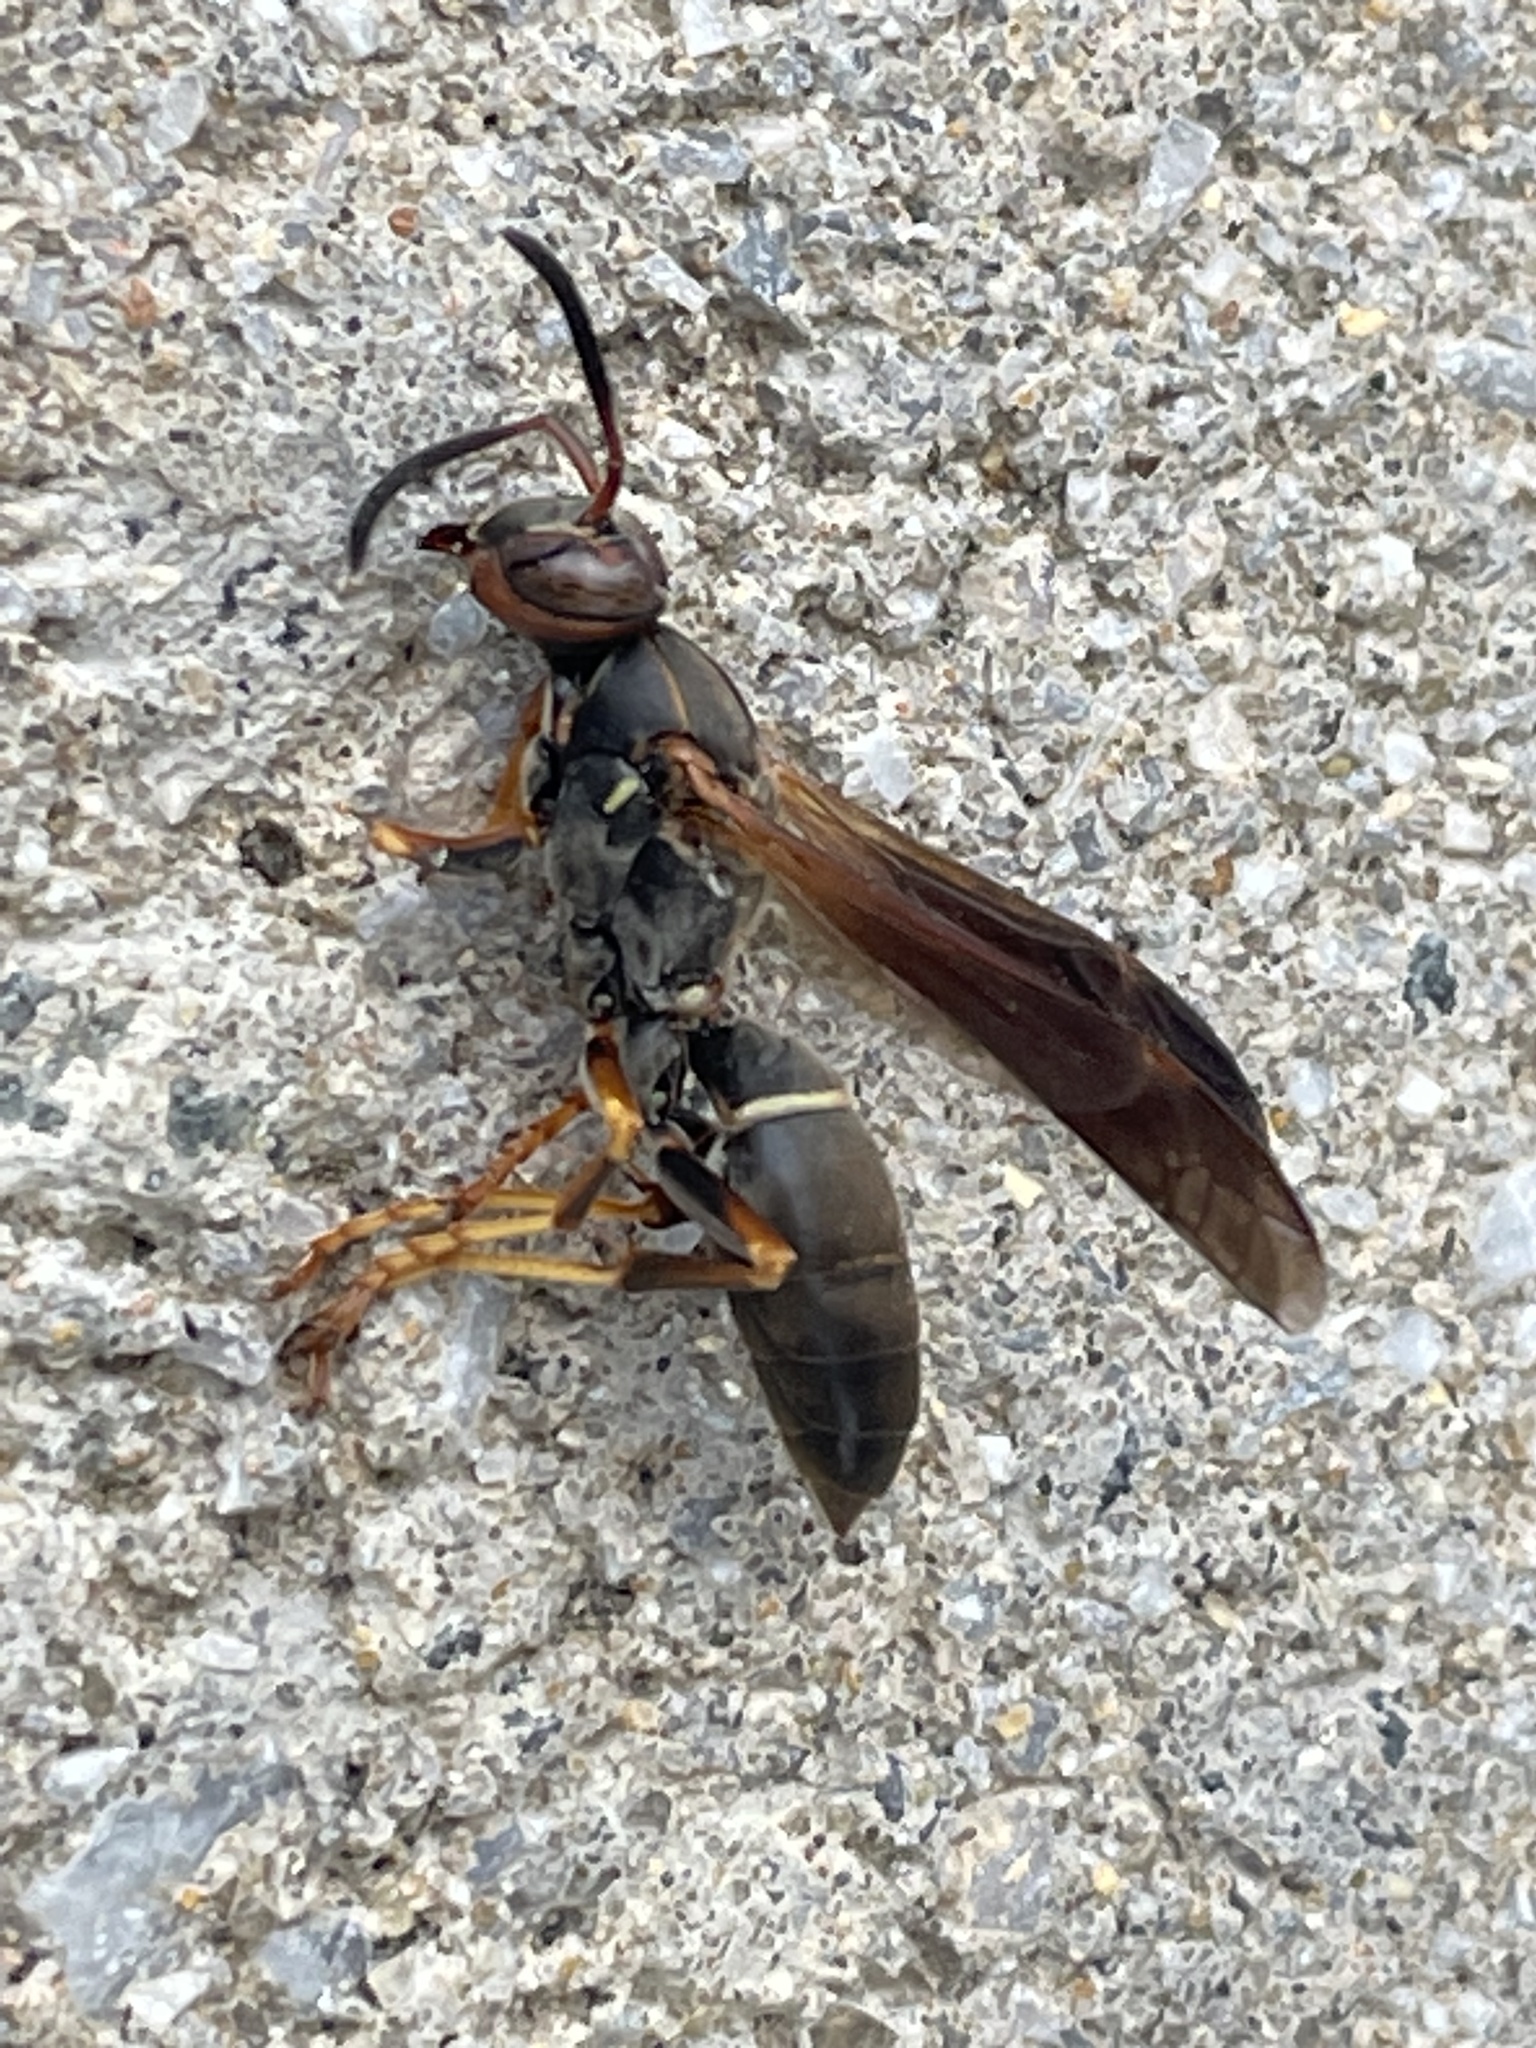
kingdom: Animalia
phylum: Arthropoda
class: Insecta
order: Hymenoptera
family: Eumenidae
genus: Polistes
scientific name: Polistes fuscatus
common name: Dark paper wasp
